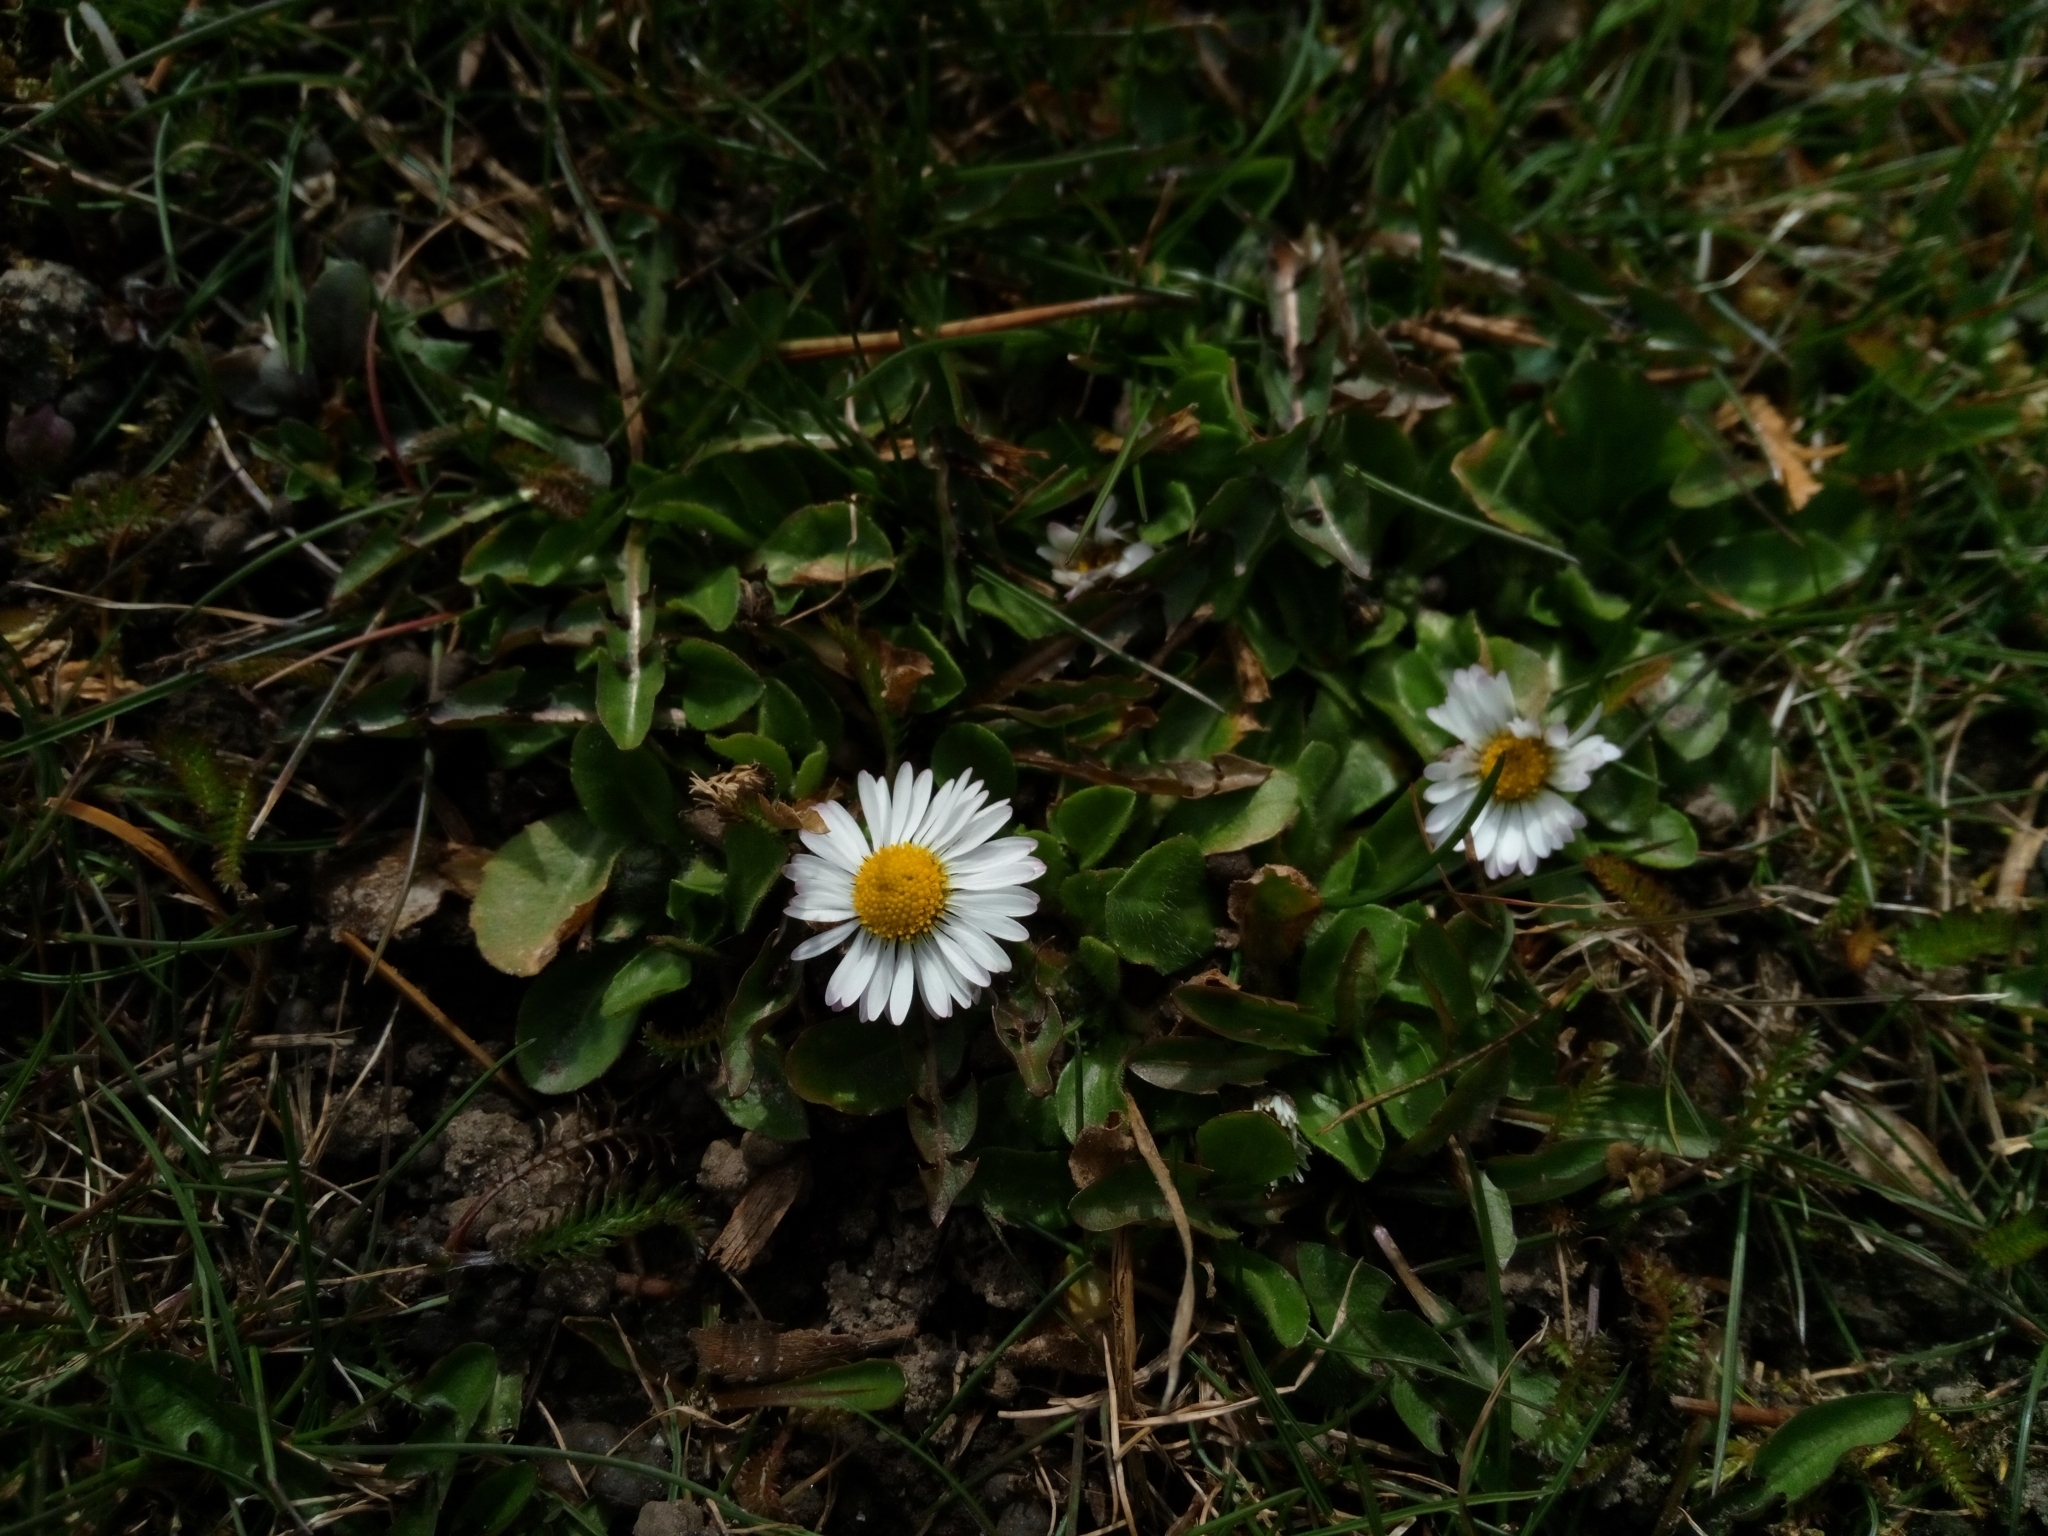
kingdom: Plantae
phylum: Tracheophyta
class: Magnoliopsida
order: Asterales
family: Asteraceae
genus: Bellis
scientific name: Bellis perennis
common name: Lawndaisy
